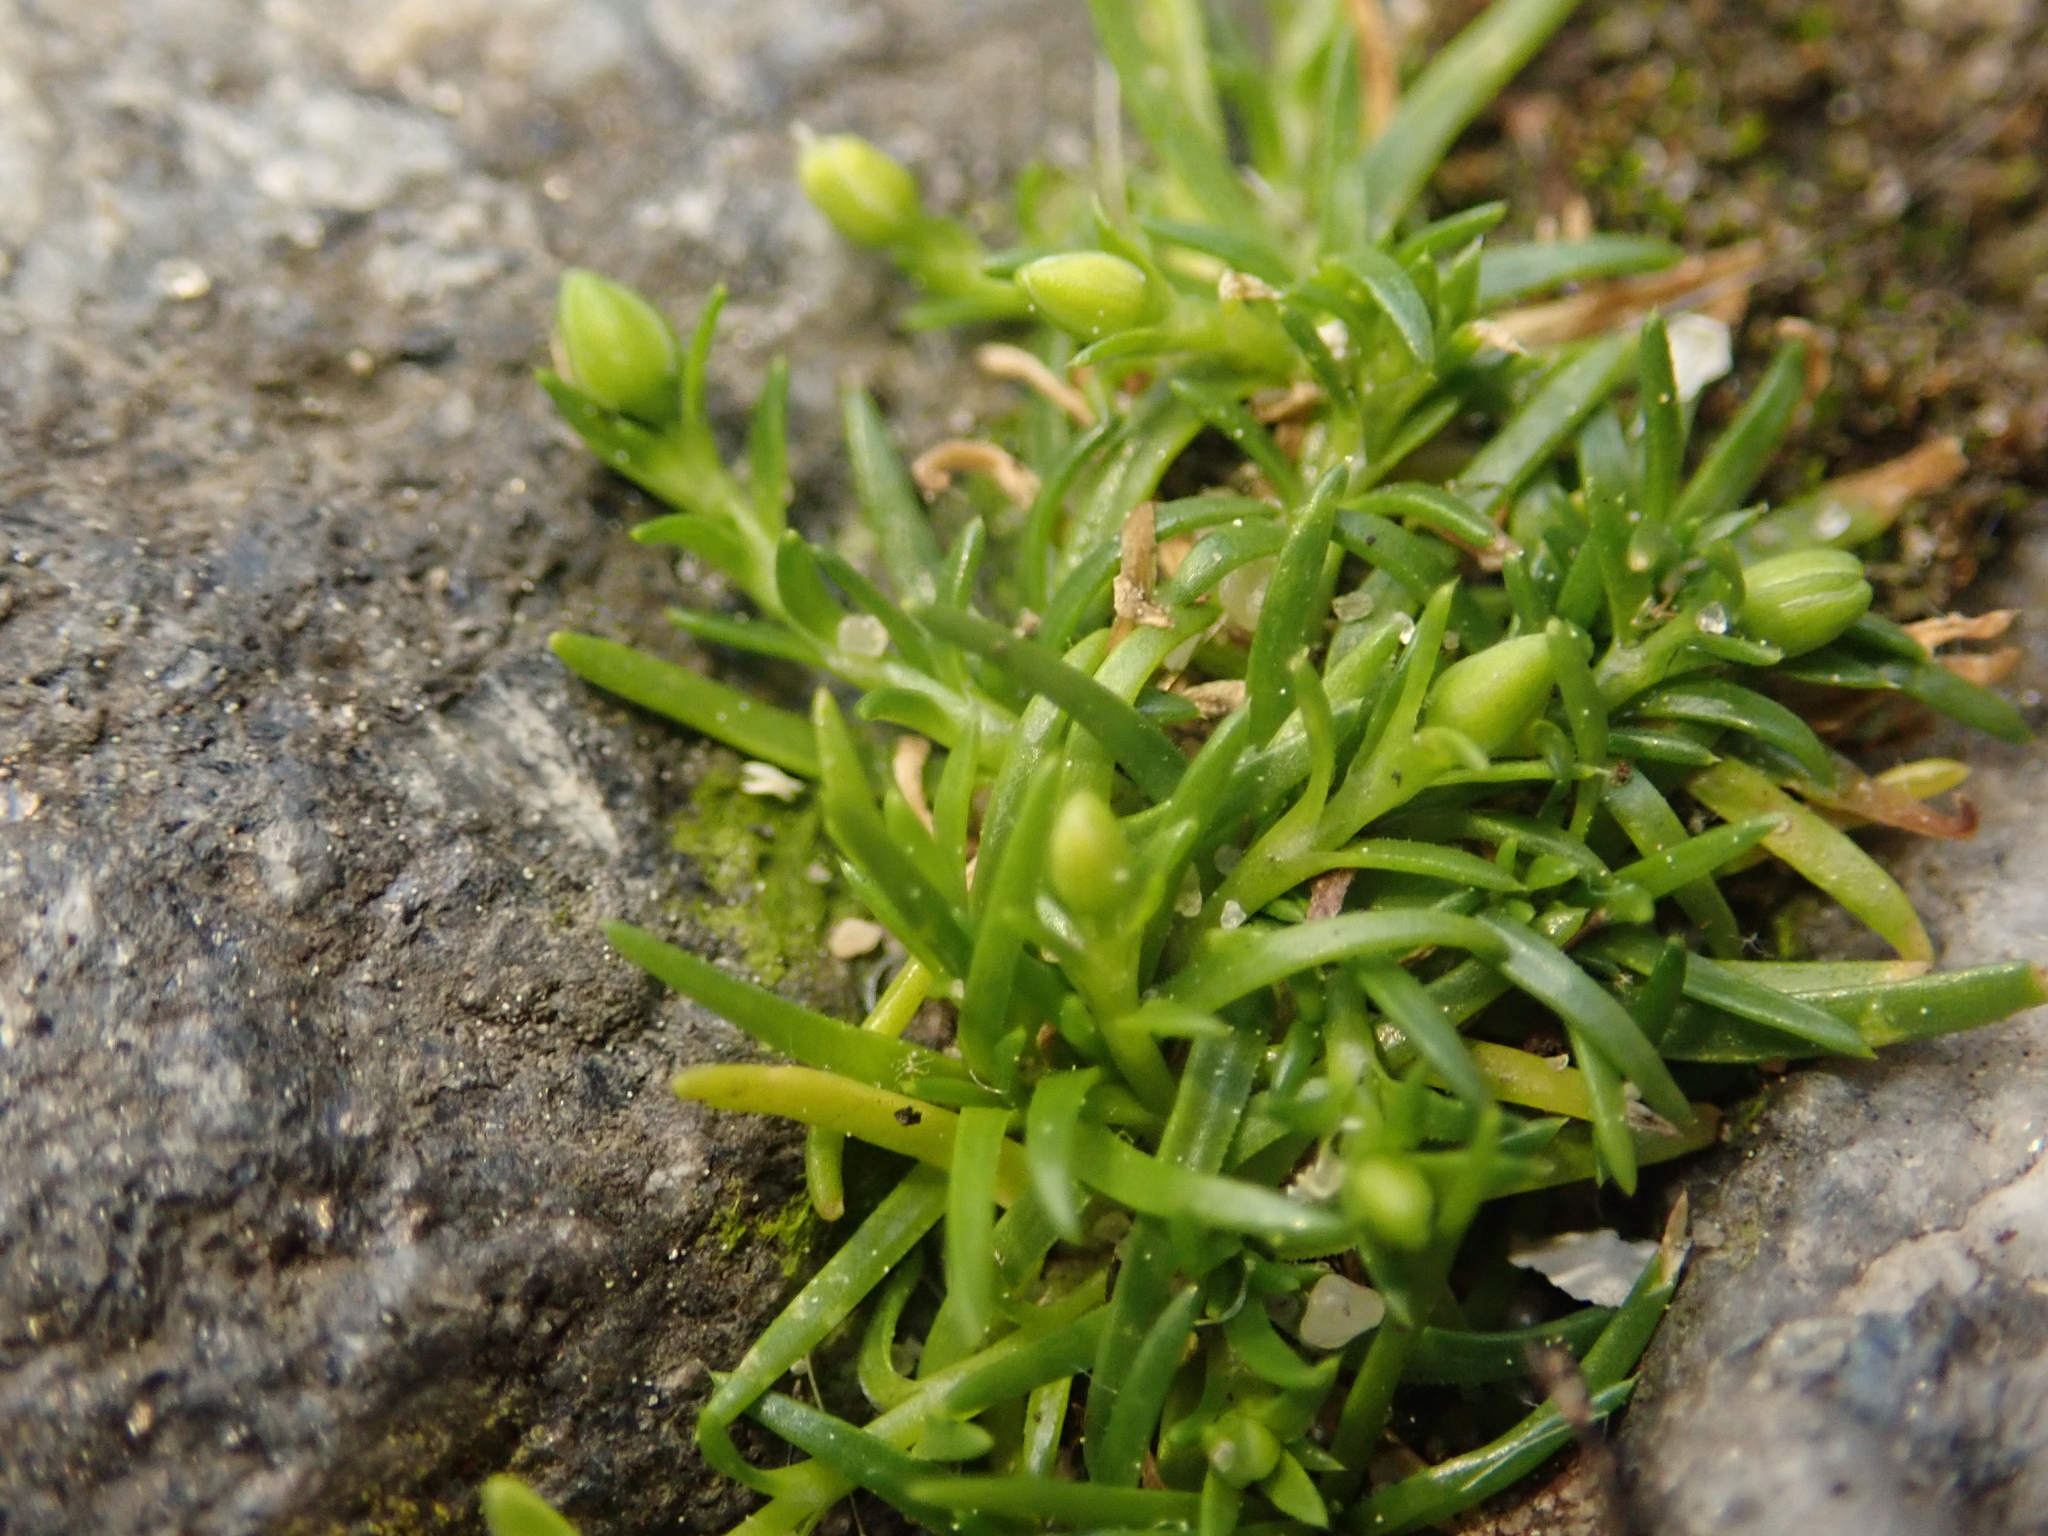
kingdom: Plantae
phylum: Tracheophyta
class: Magnoliopsida
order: Caryophyllales
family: Caryophyllaceae
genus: Sagina
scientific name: Sagina procumbens
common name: Procumbent pearlwort
